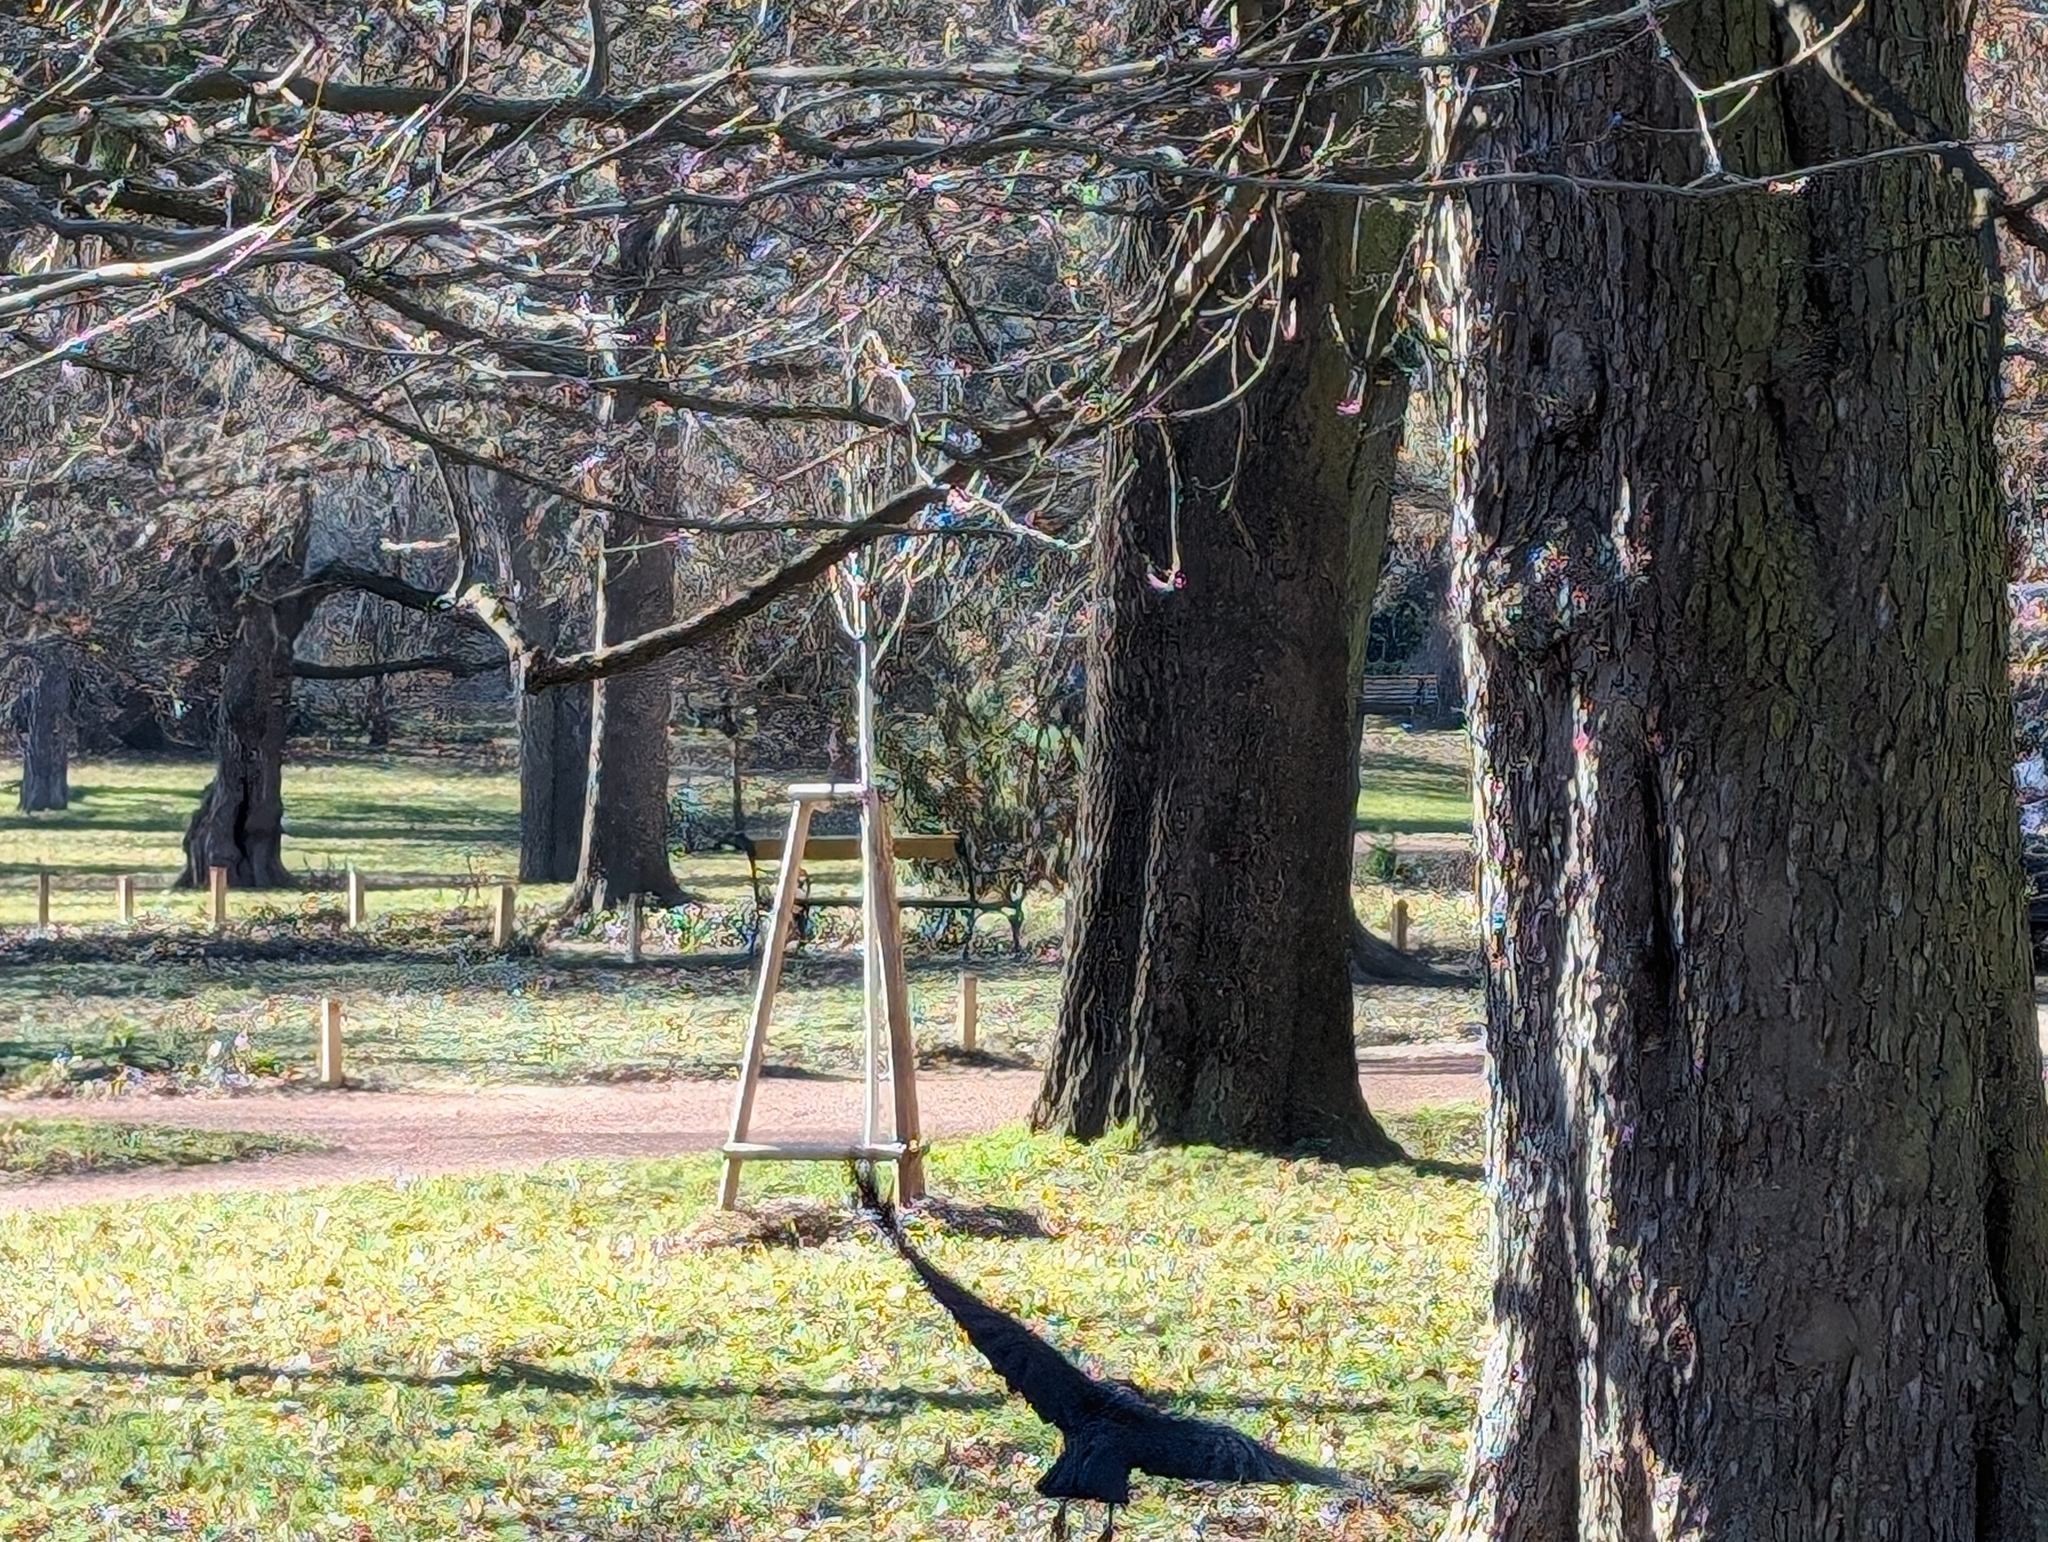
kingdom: Animalia
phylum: Chordata
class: Aves
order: Passeriformes
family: Corvidae
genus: Corvus
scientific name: Corvus
